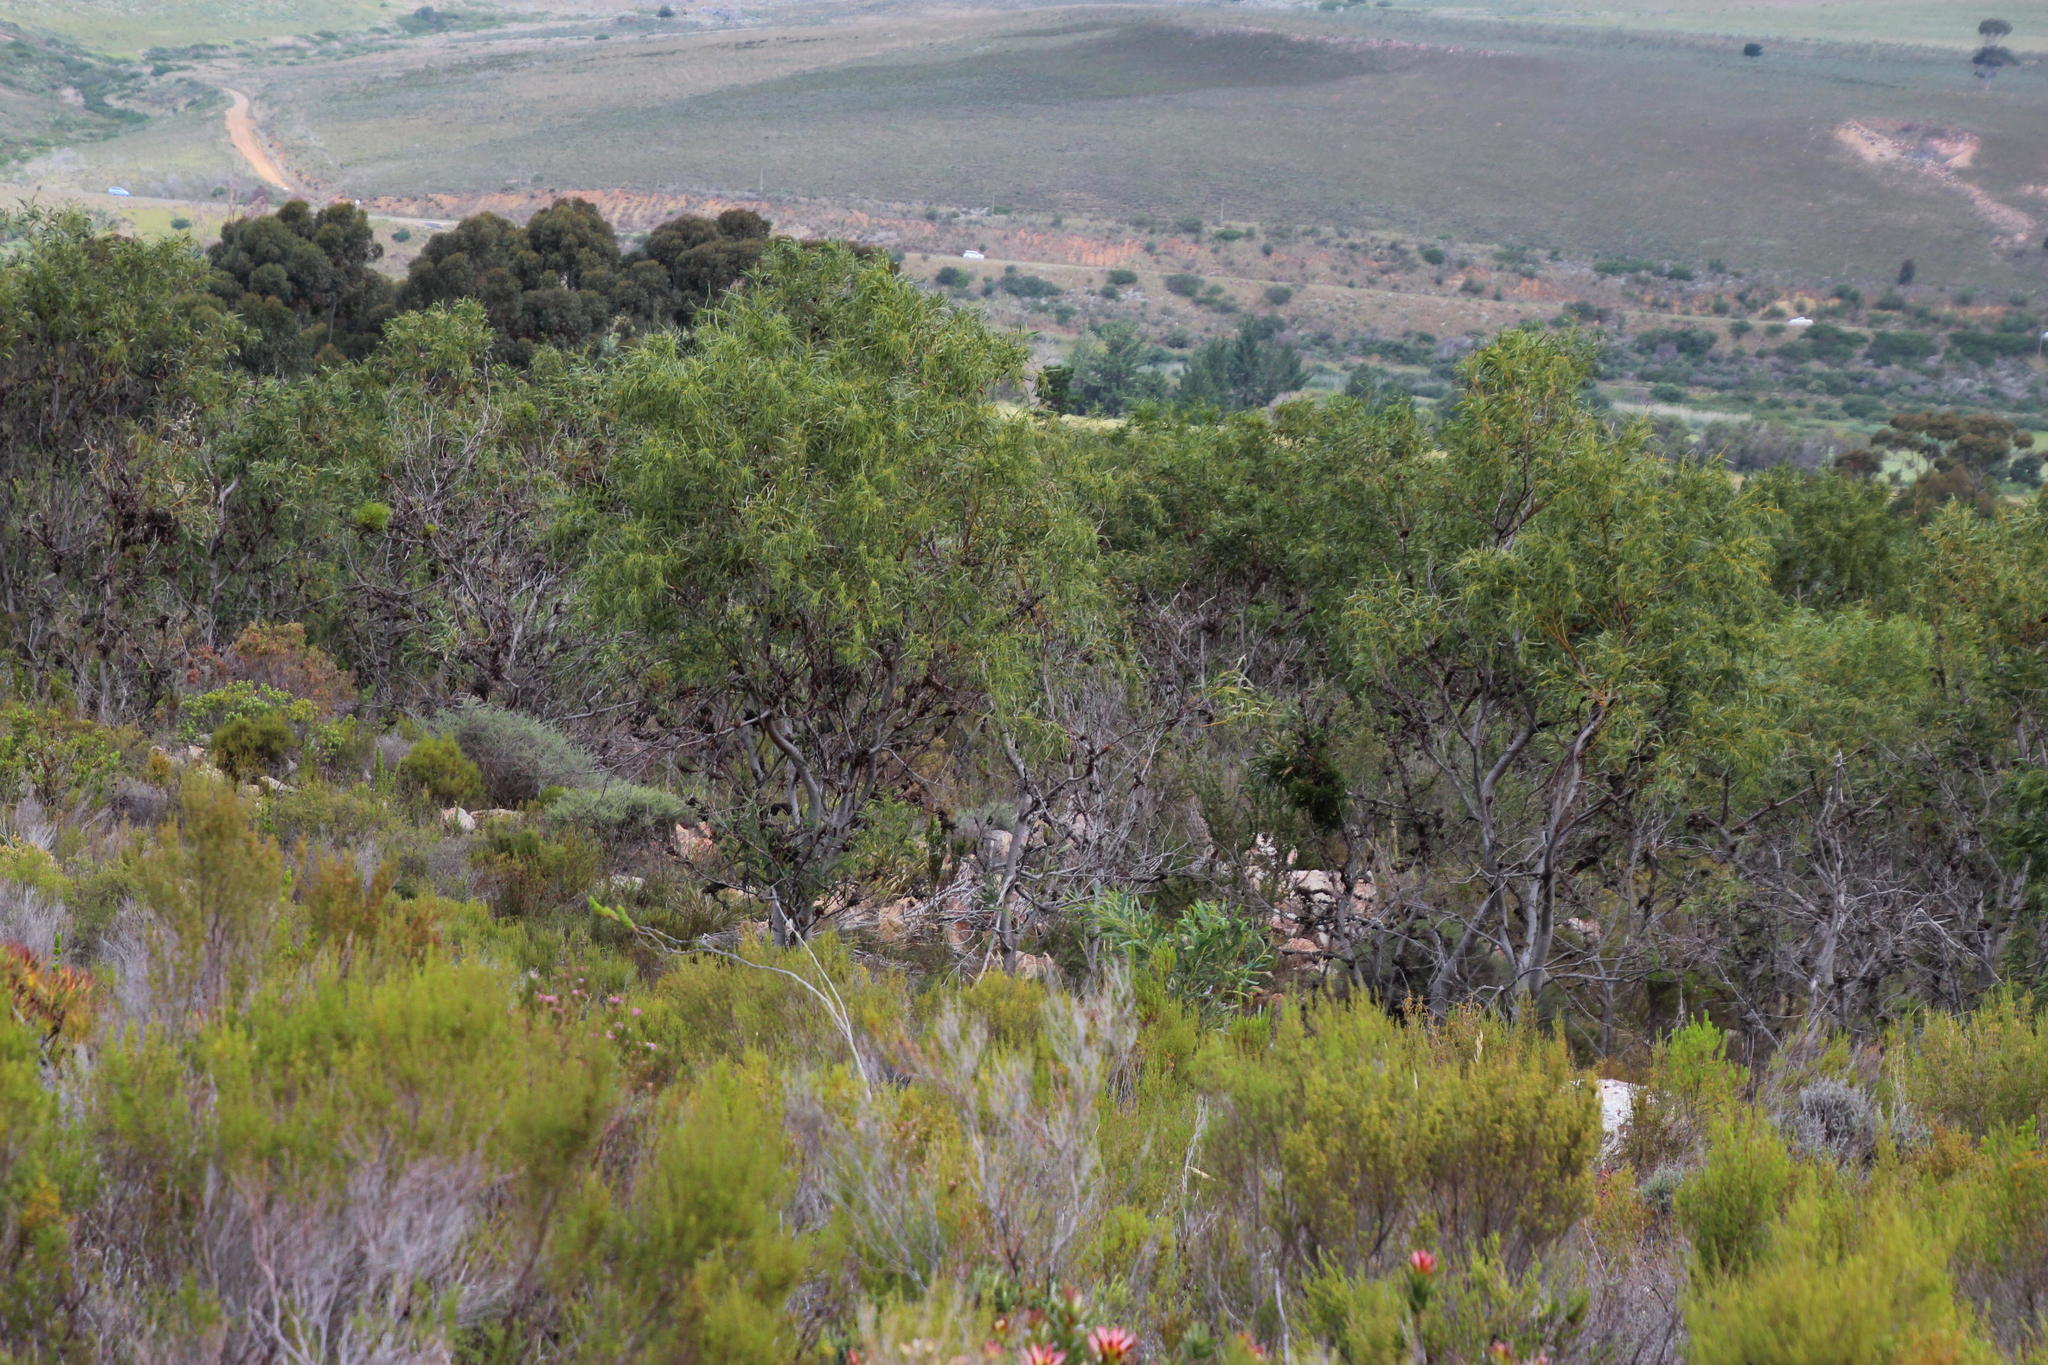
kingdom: Plantae
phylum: Tracheophyta
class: Magnoliopsida
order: Fabales
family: Fabaceae
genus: Acacia
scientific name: Acacia saligna
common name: Orange wattle
